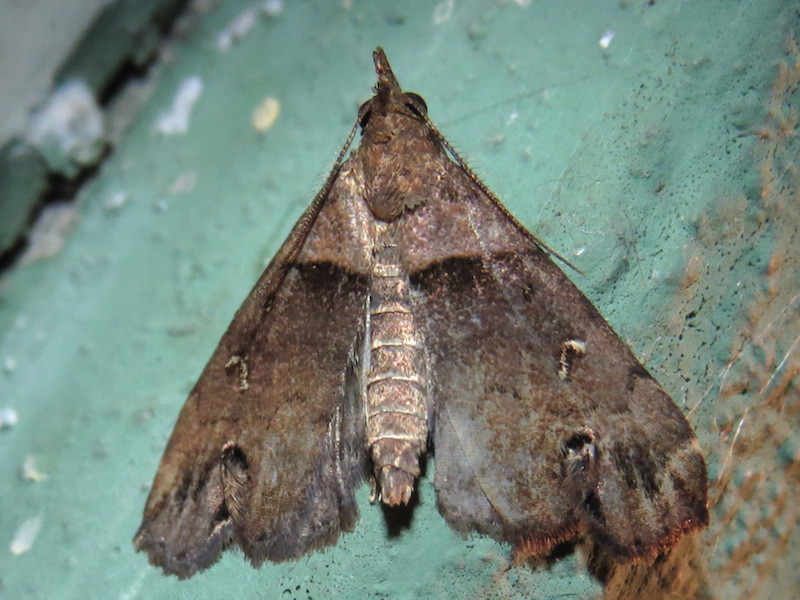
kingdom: Animalia
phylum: Arthropoda
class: Insecta
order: Lepidoptera
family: Erebidae
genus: Lascoria
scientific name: Lascoria ambigualis
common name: Ambiguous moth
